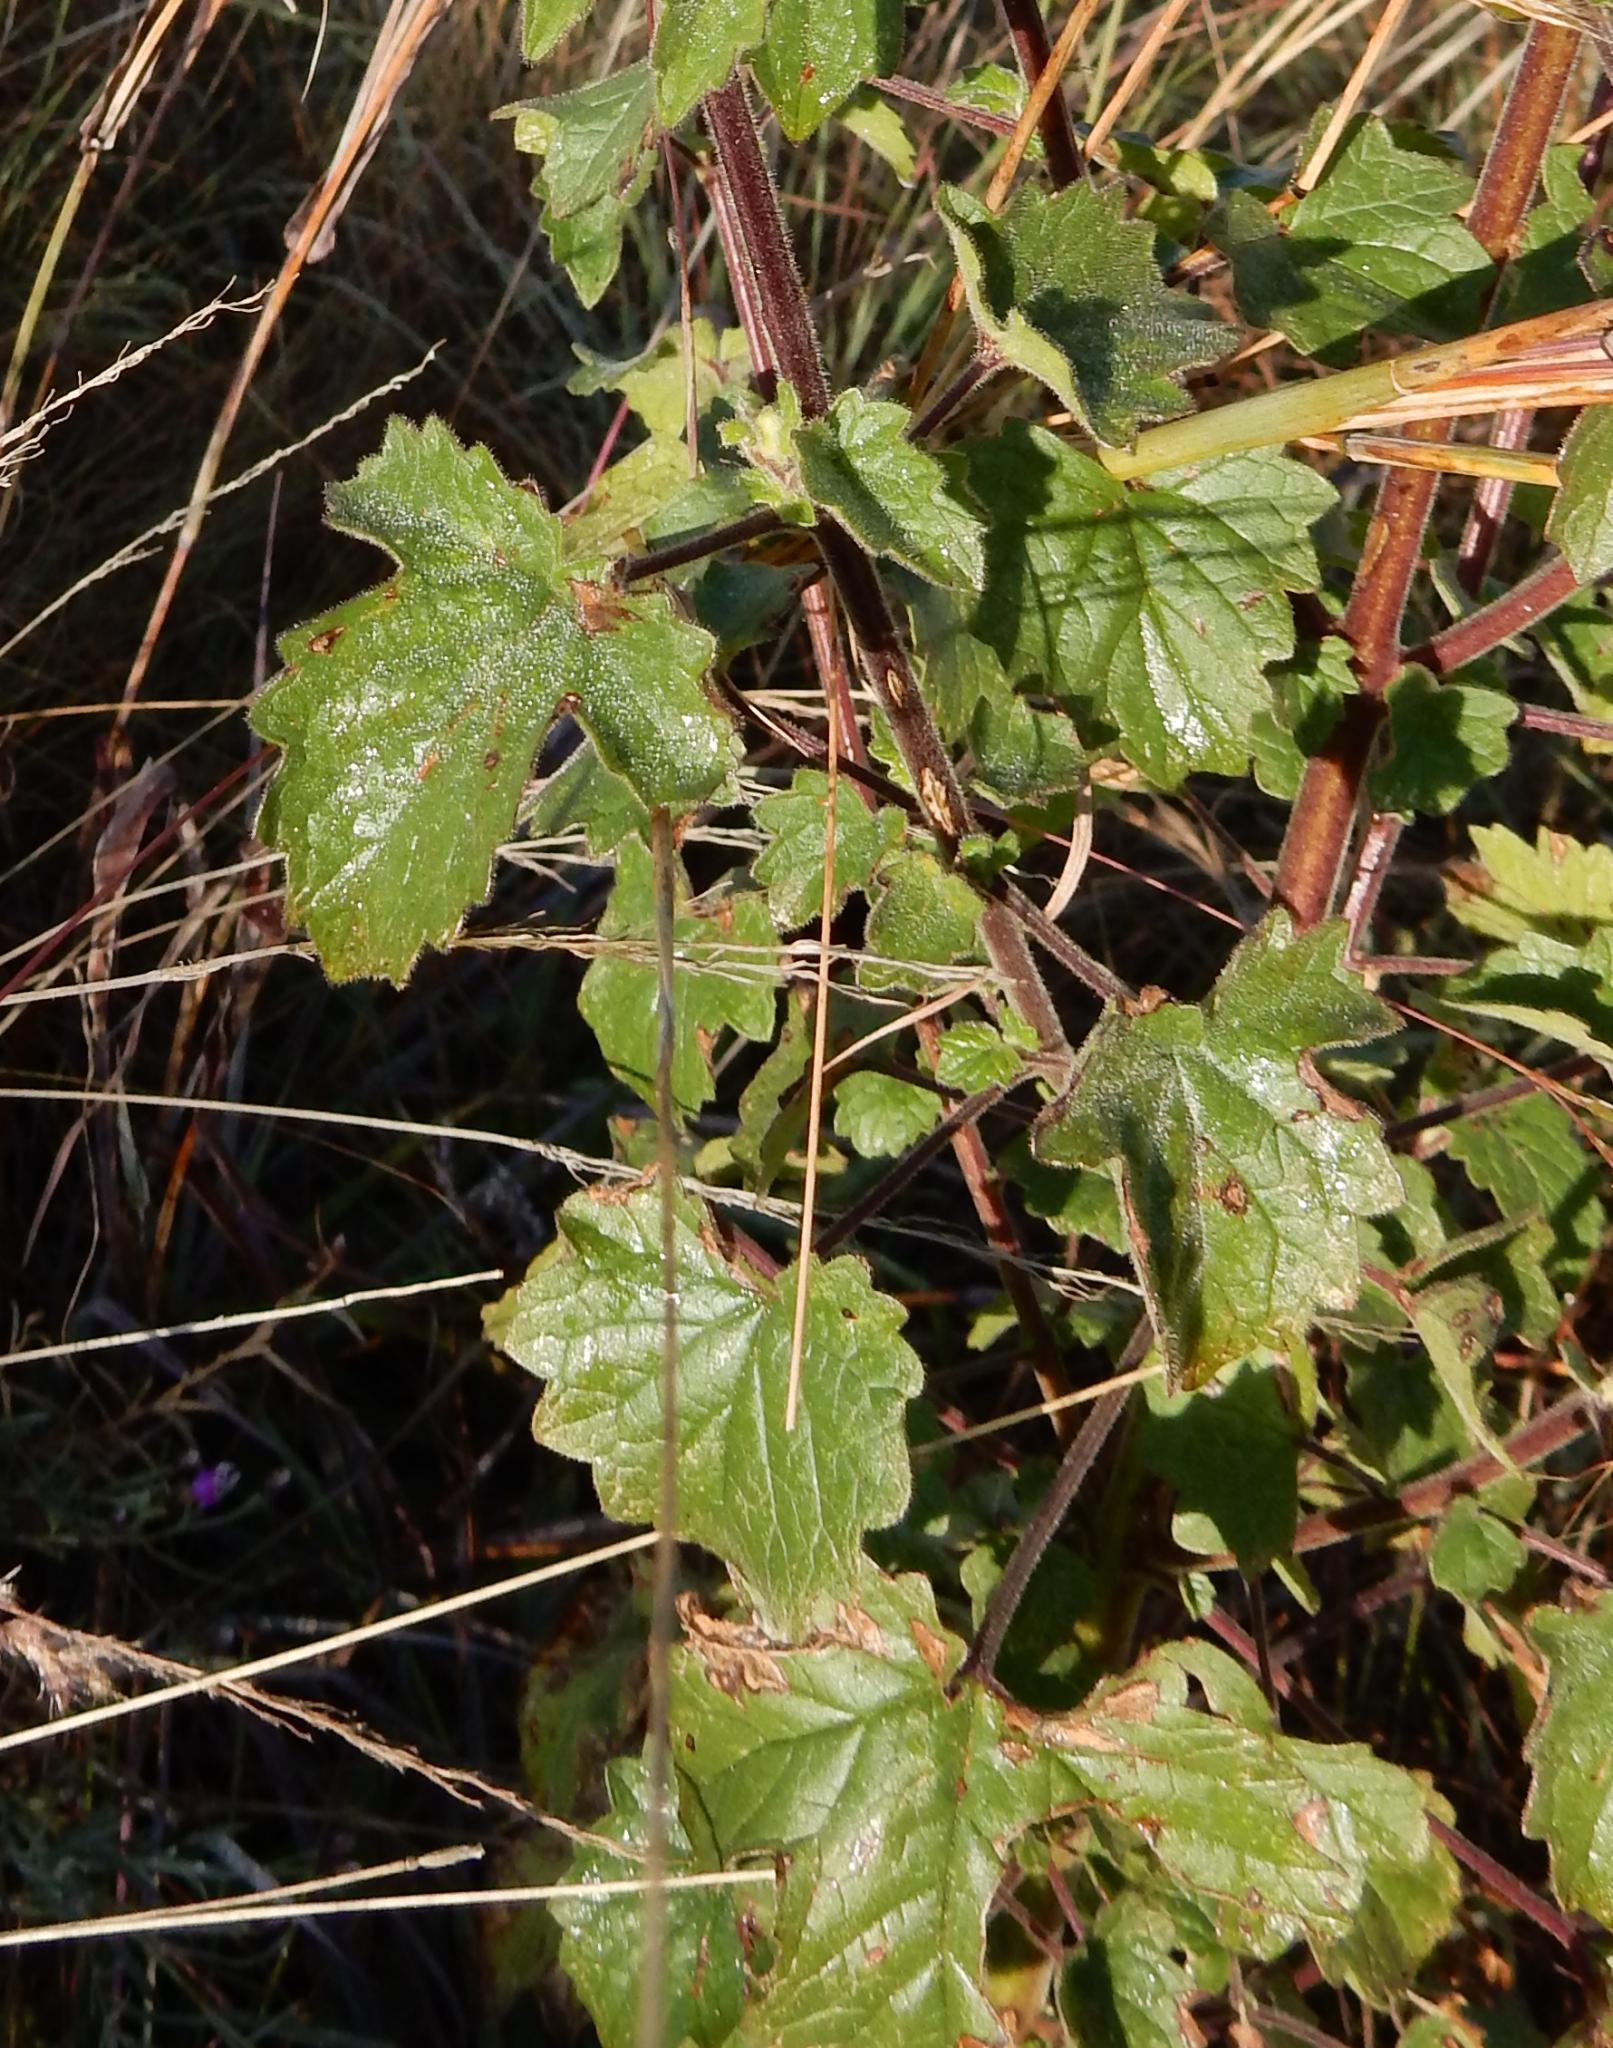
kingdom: Plantae
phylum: Tracheophyta
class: Magnoliopsida
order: Lamiales
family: Pedaliaceae
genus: Sesamum
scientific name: Sesamum trilobum
